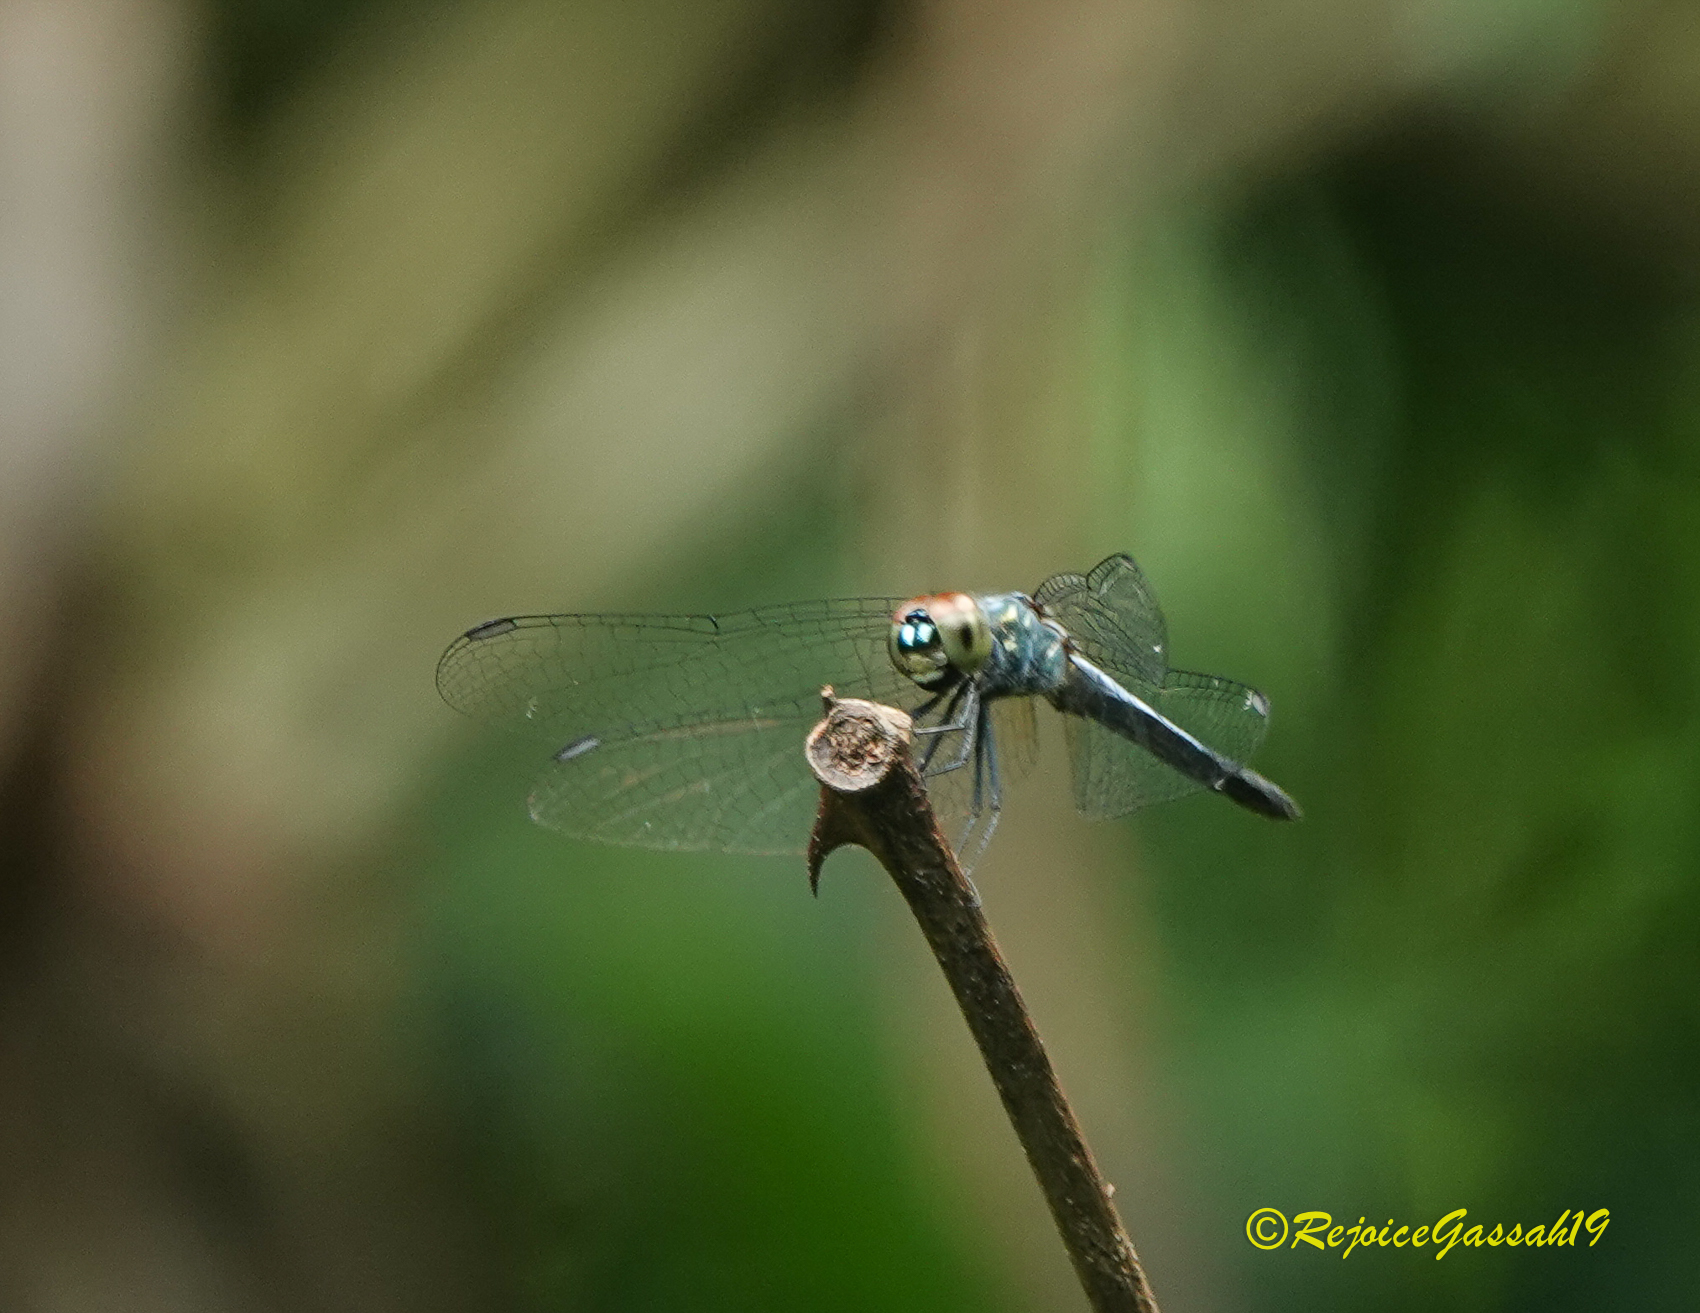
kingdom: Animalia
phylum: Arthropoda
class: Insecta
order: Odonata
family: Libellulidae
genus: Brachydiplax
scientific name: Brachydiplax sobrina
